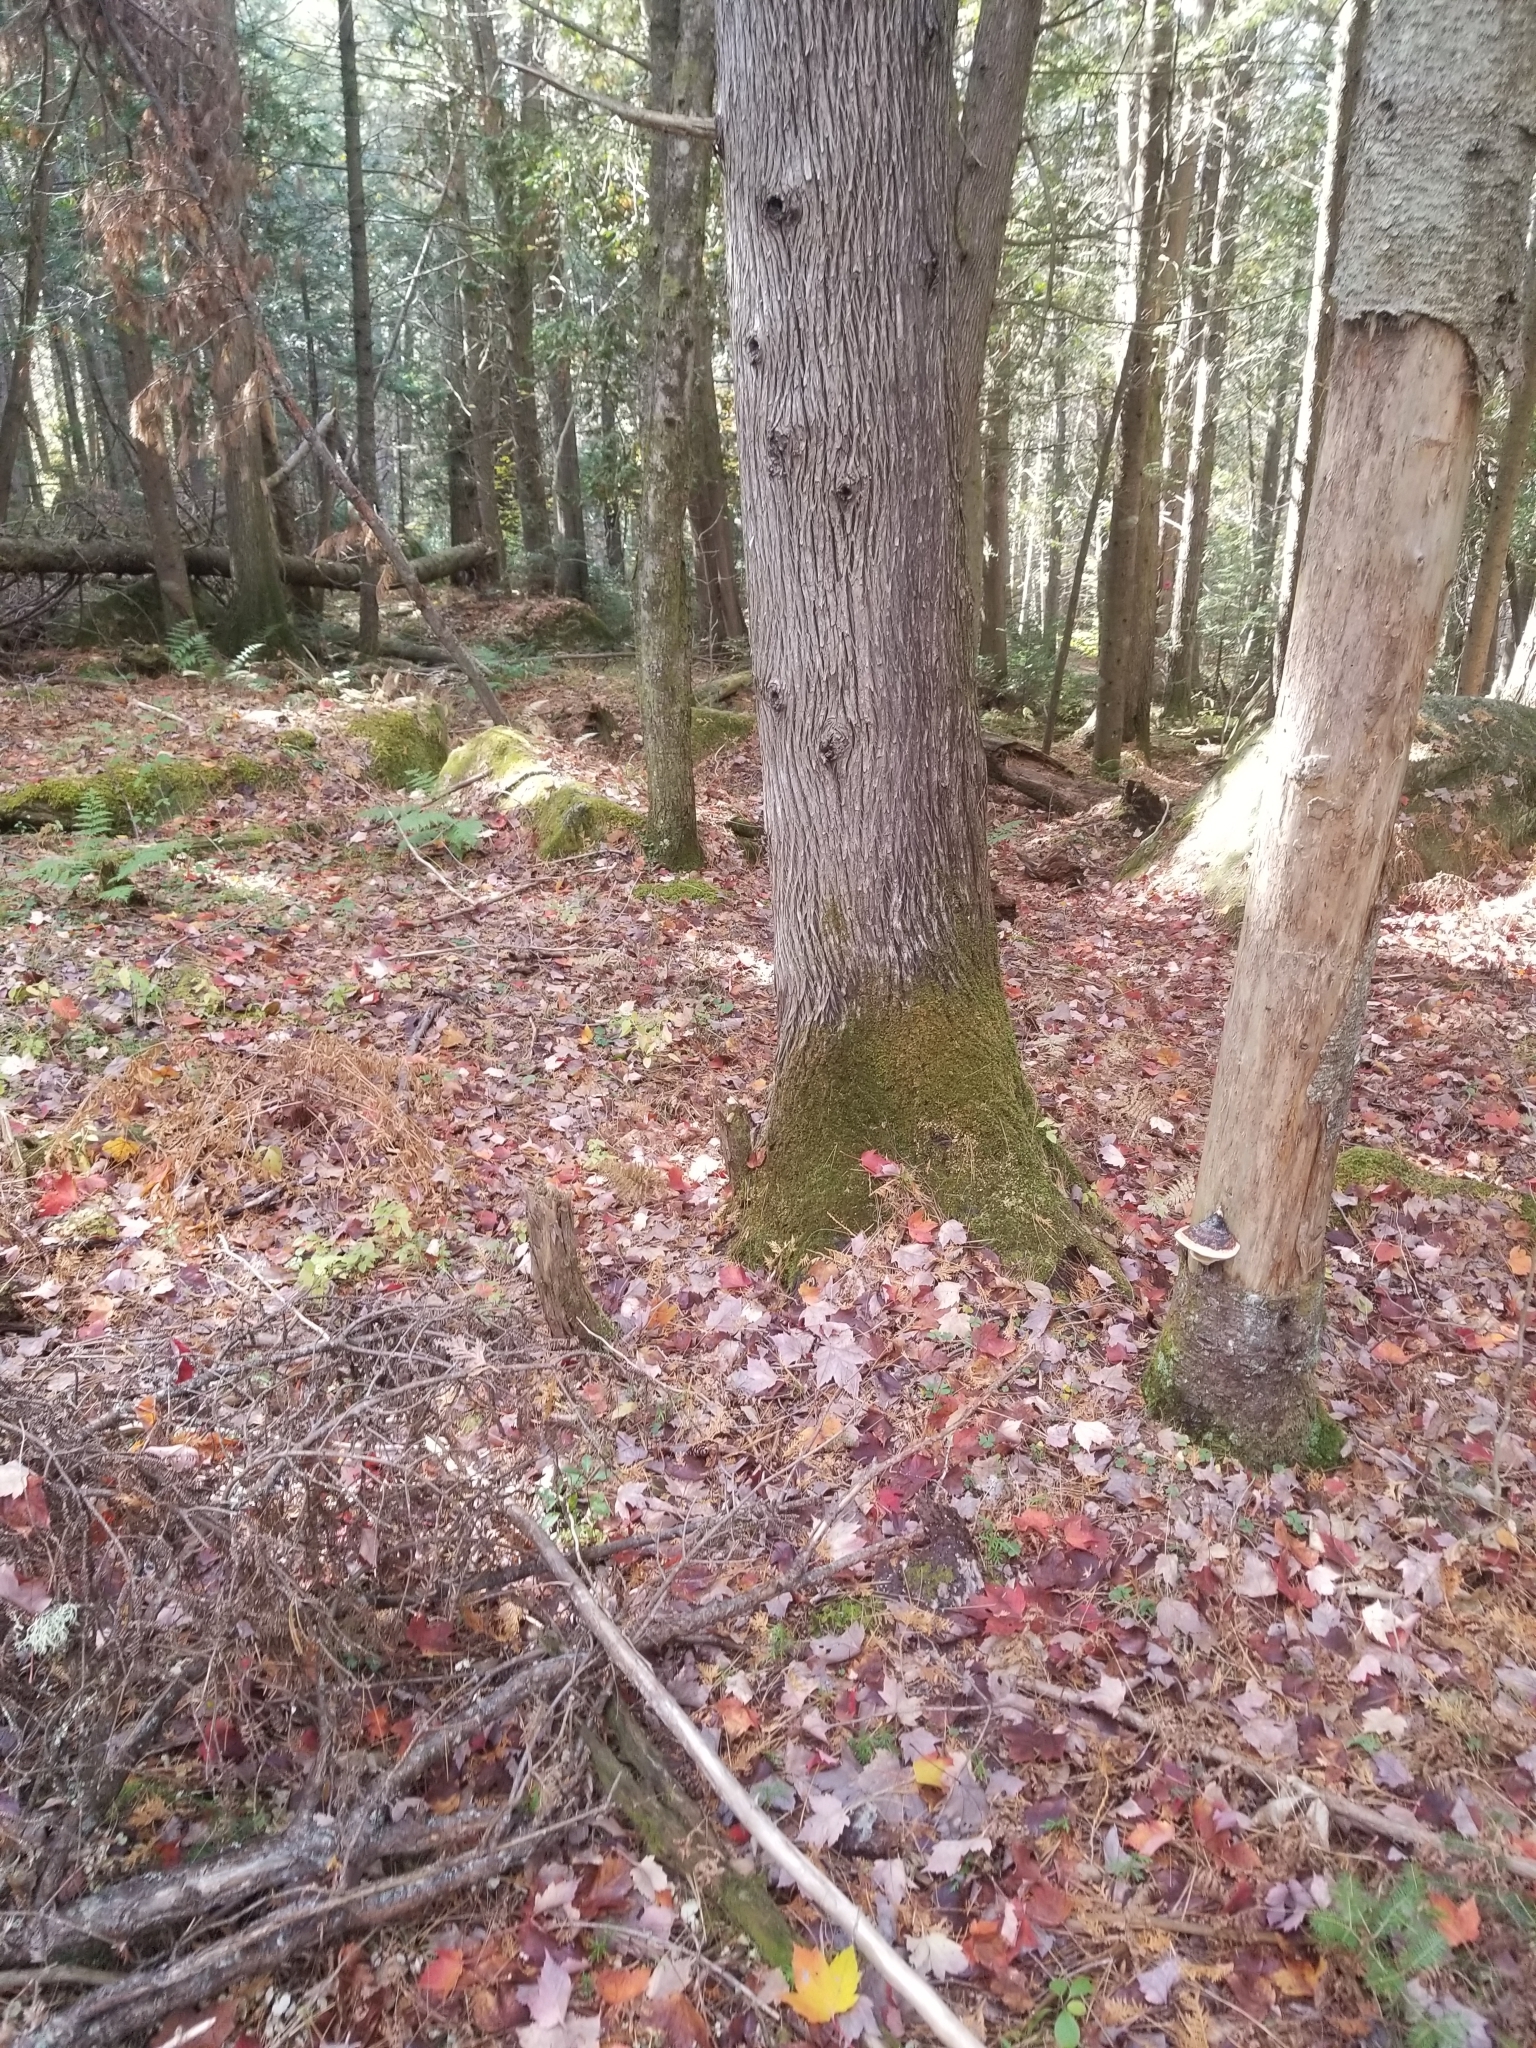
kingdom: Plantae
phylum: Tracheophyta
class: Pinopsida
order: Pinales
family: Cupressaceae
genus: Thuja
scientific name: Thuja occidentalis
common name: Northern white-cedar
